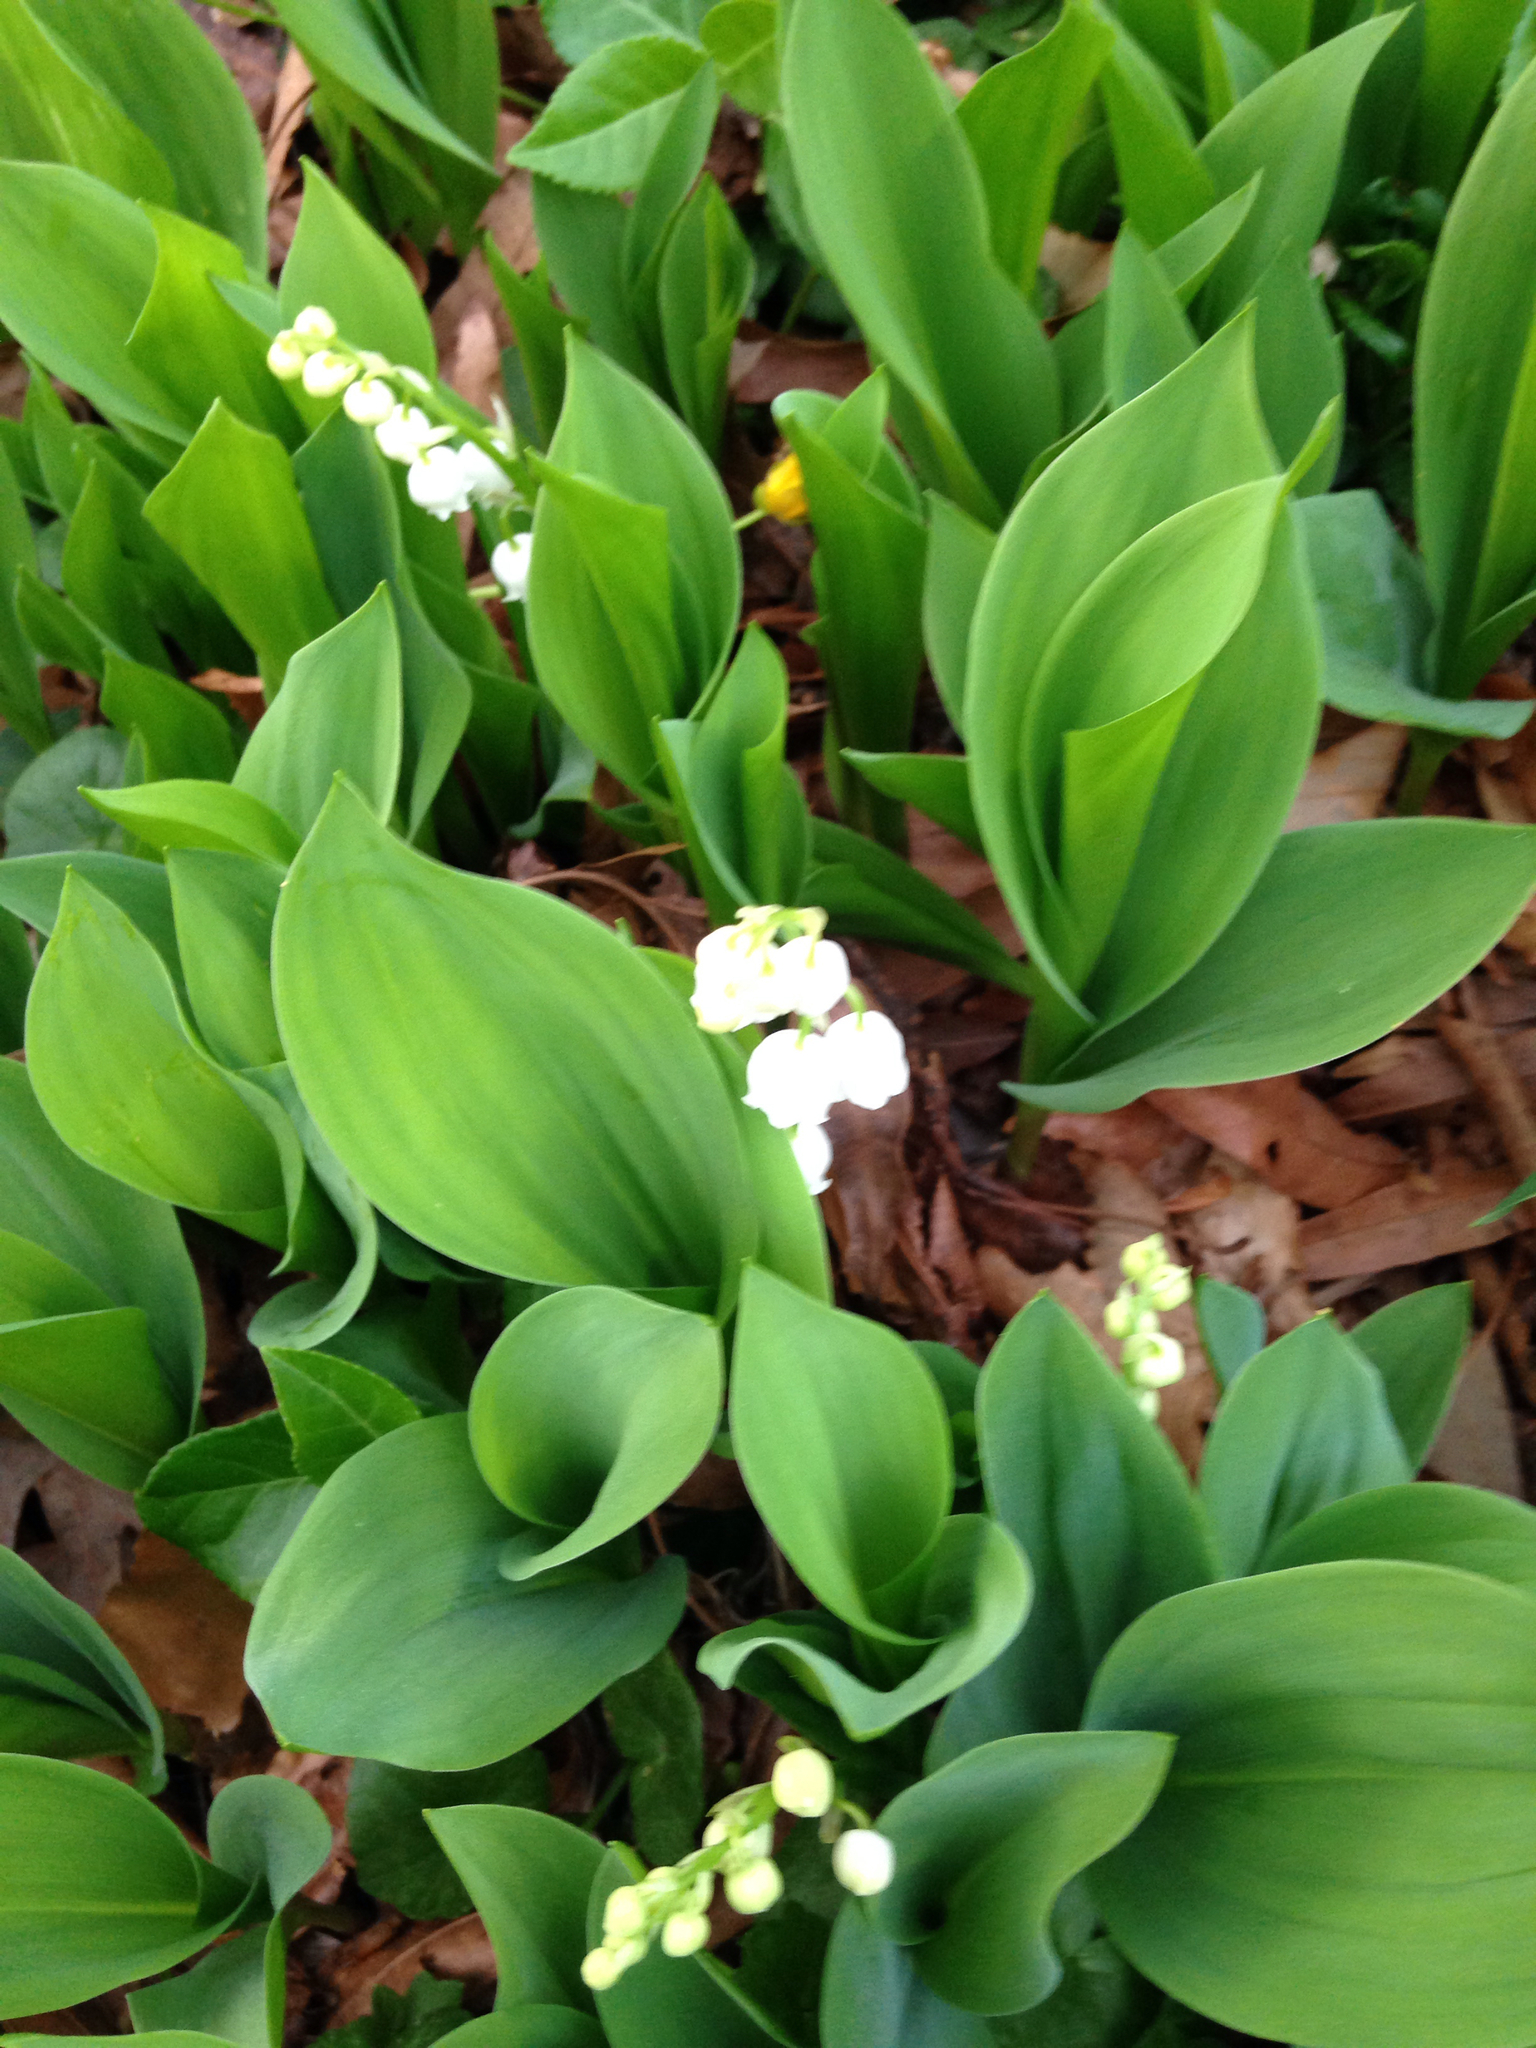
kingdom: Plantae
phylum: Tracheophyta
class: Liliopsida
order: Asparagales
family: Asparagaceae
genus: Convallaria
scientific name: Convallaria majalis
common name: Lily-of-the-valley
